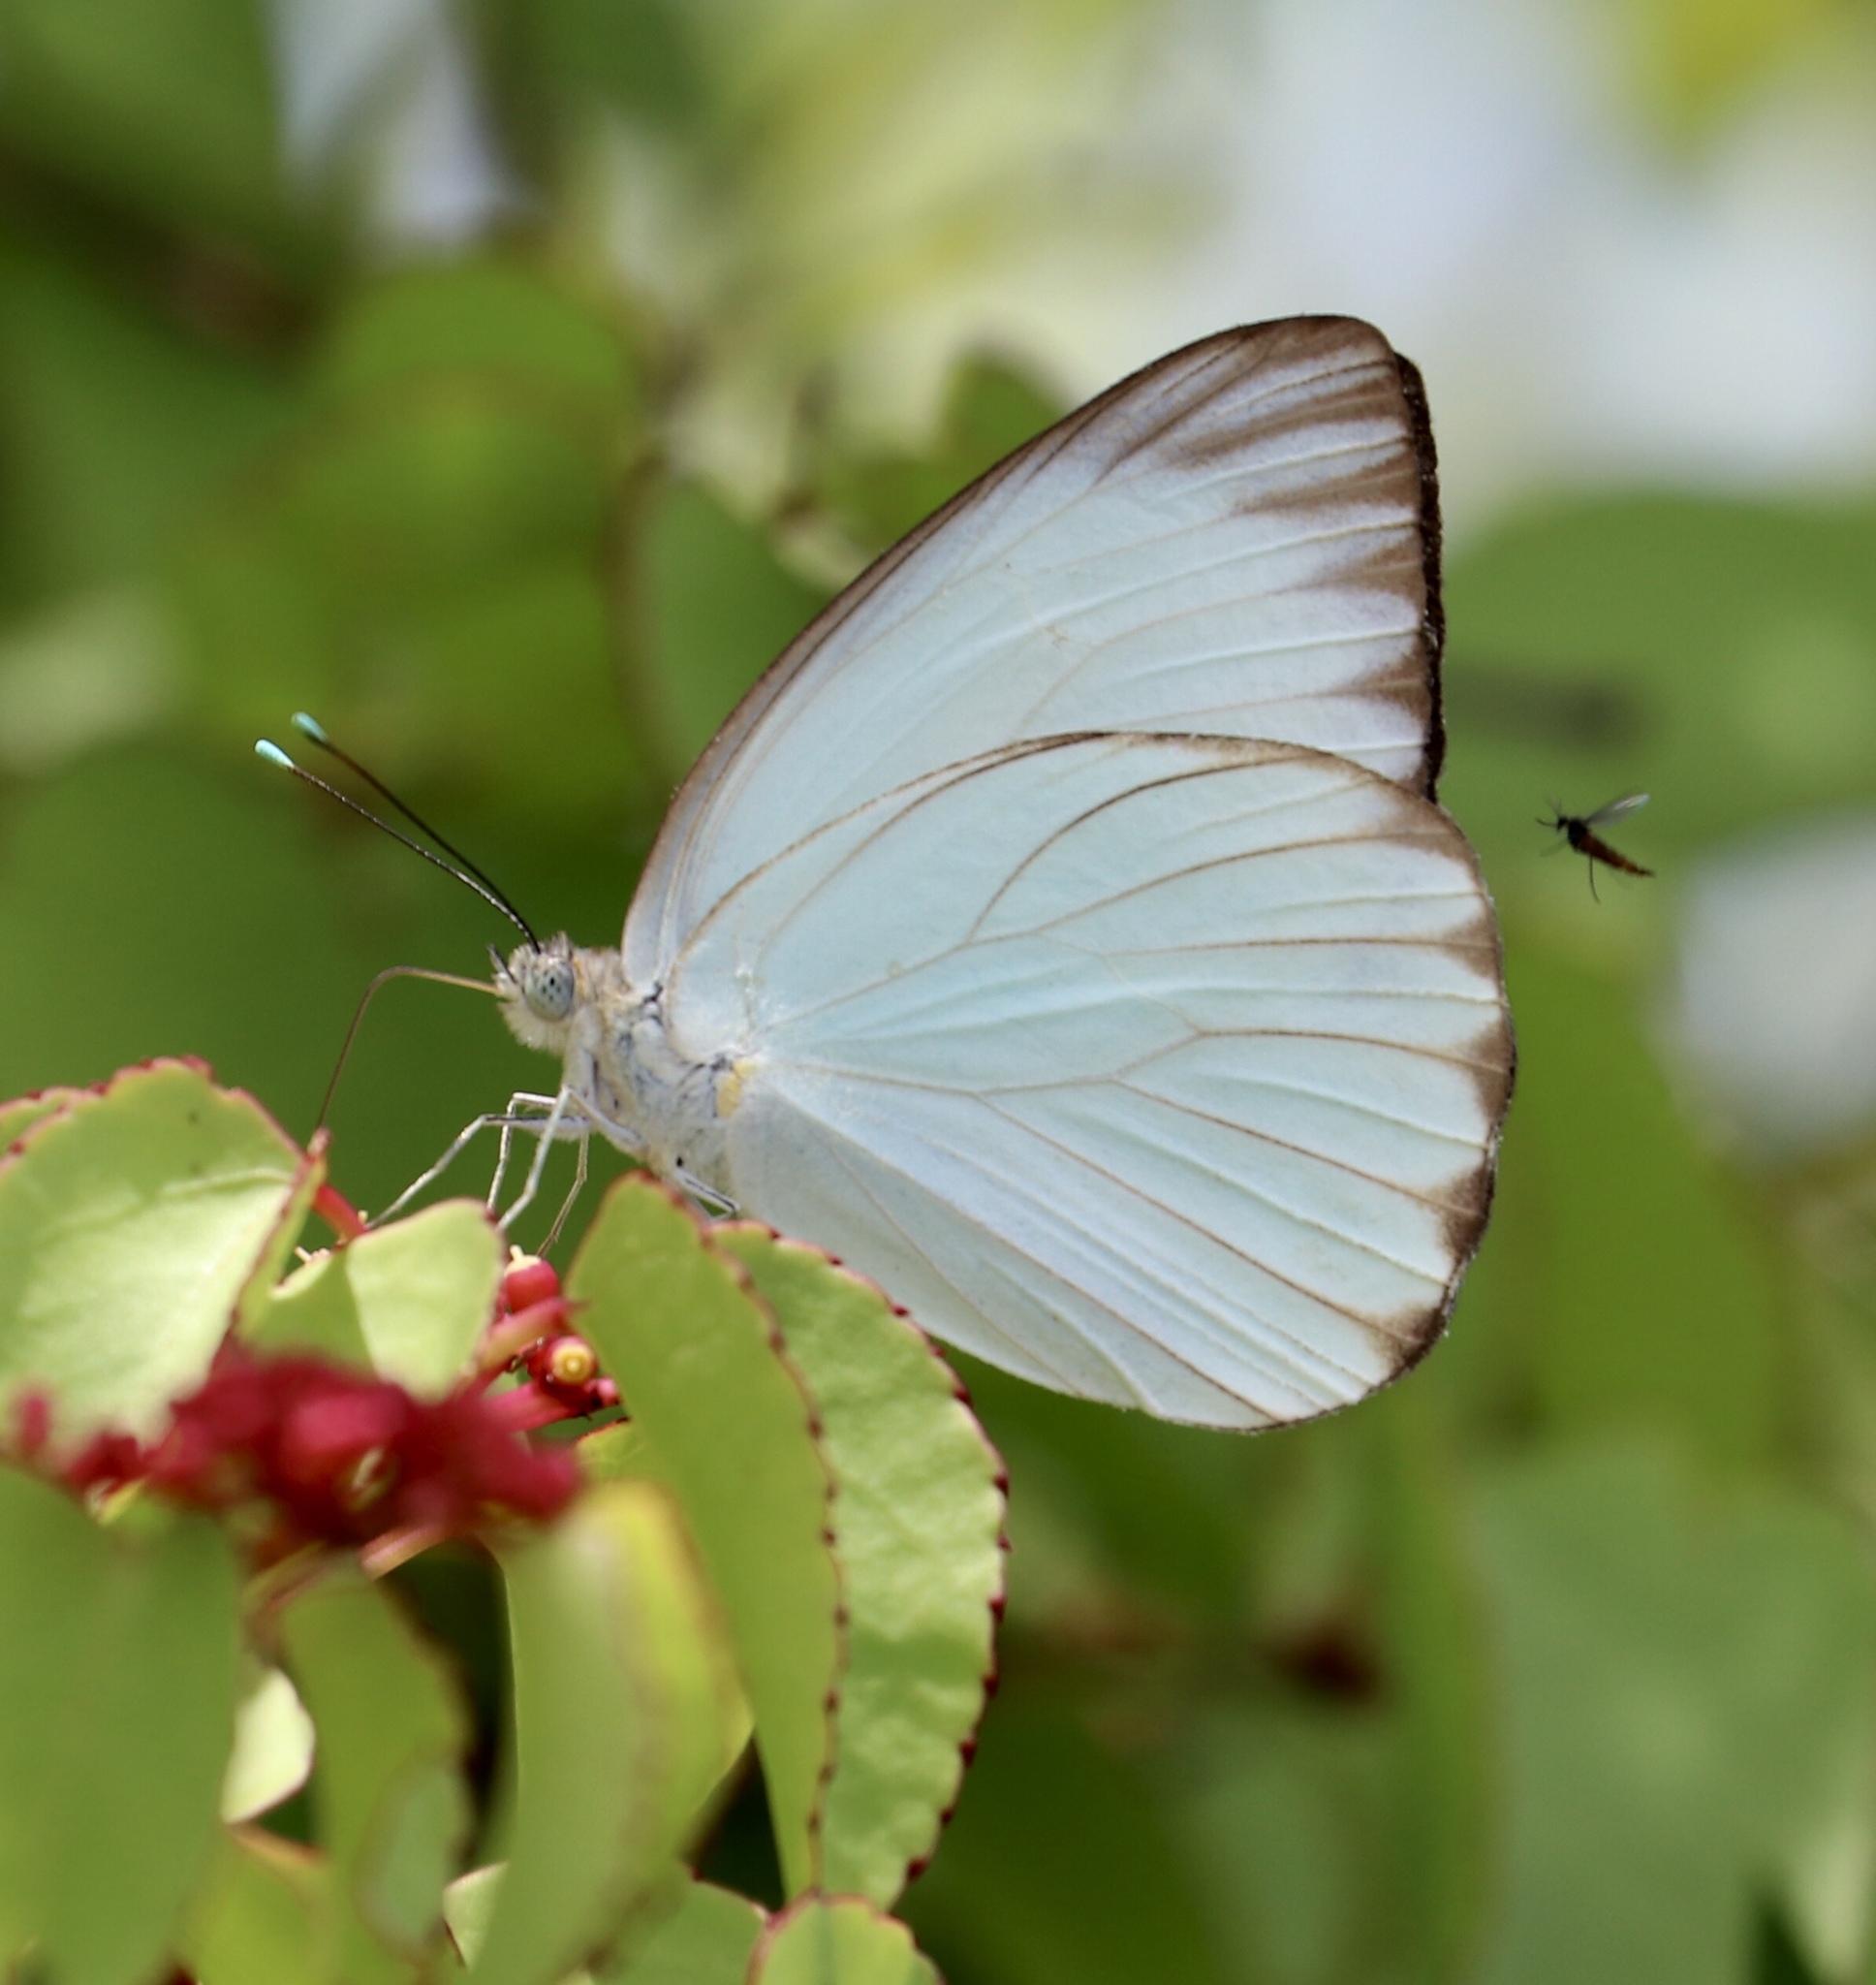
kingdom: Animalia
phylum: Arthropoda
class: Insecta
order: Lepidoptera
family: Pieridae
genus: Ascia
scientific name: Ascia monuste
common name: Great southern white
